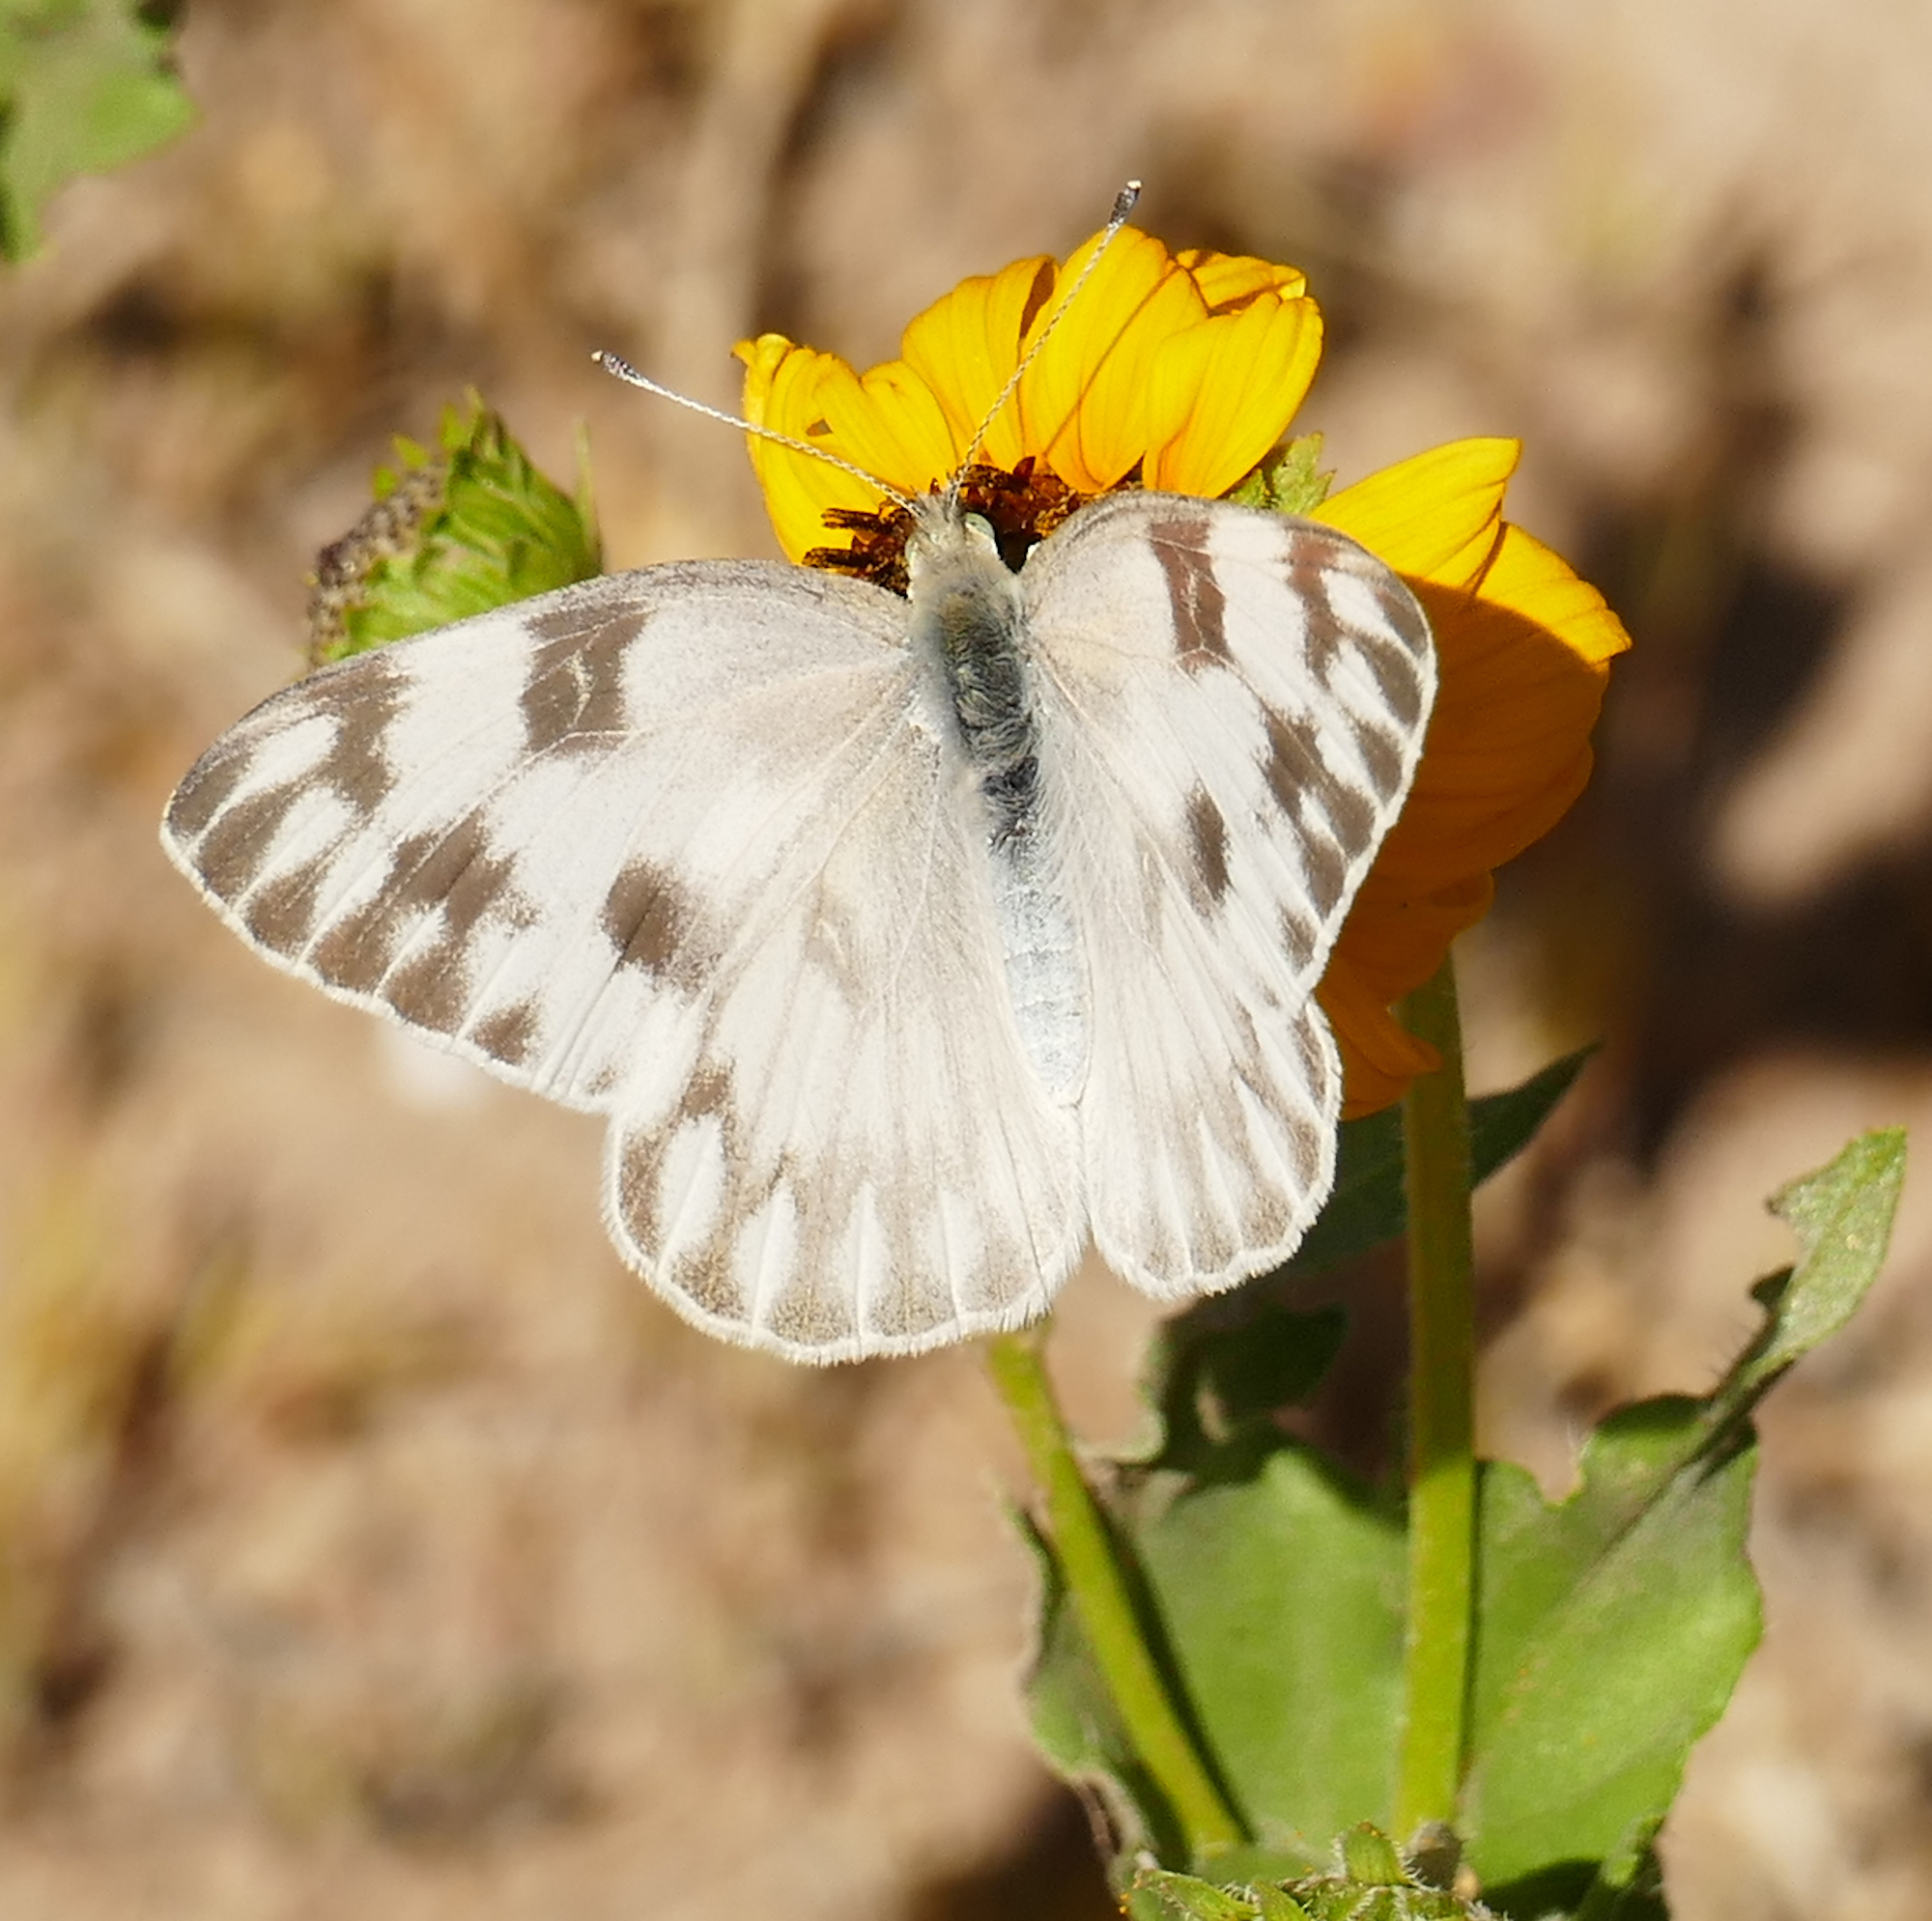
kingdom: Animalia
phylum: Arthropoda
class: Insecta
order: Lepidoptera
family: Pieridae
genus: Pontia
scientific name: Pontia protodice
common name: Checkered white
